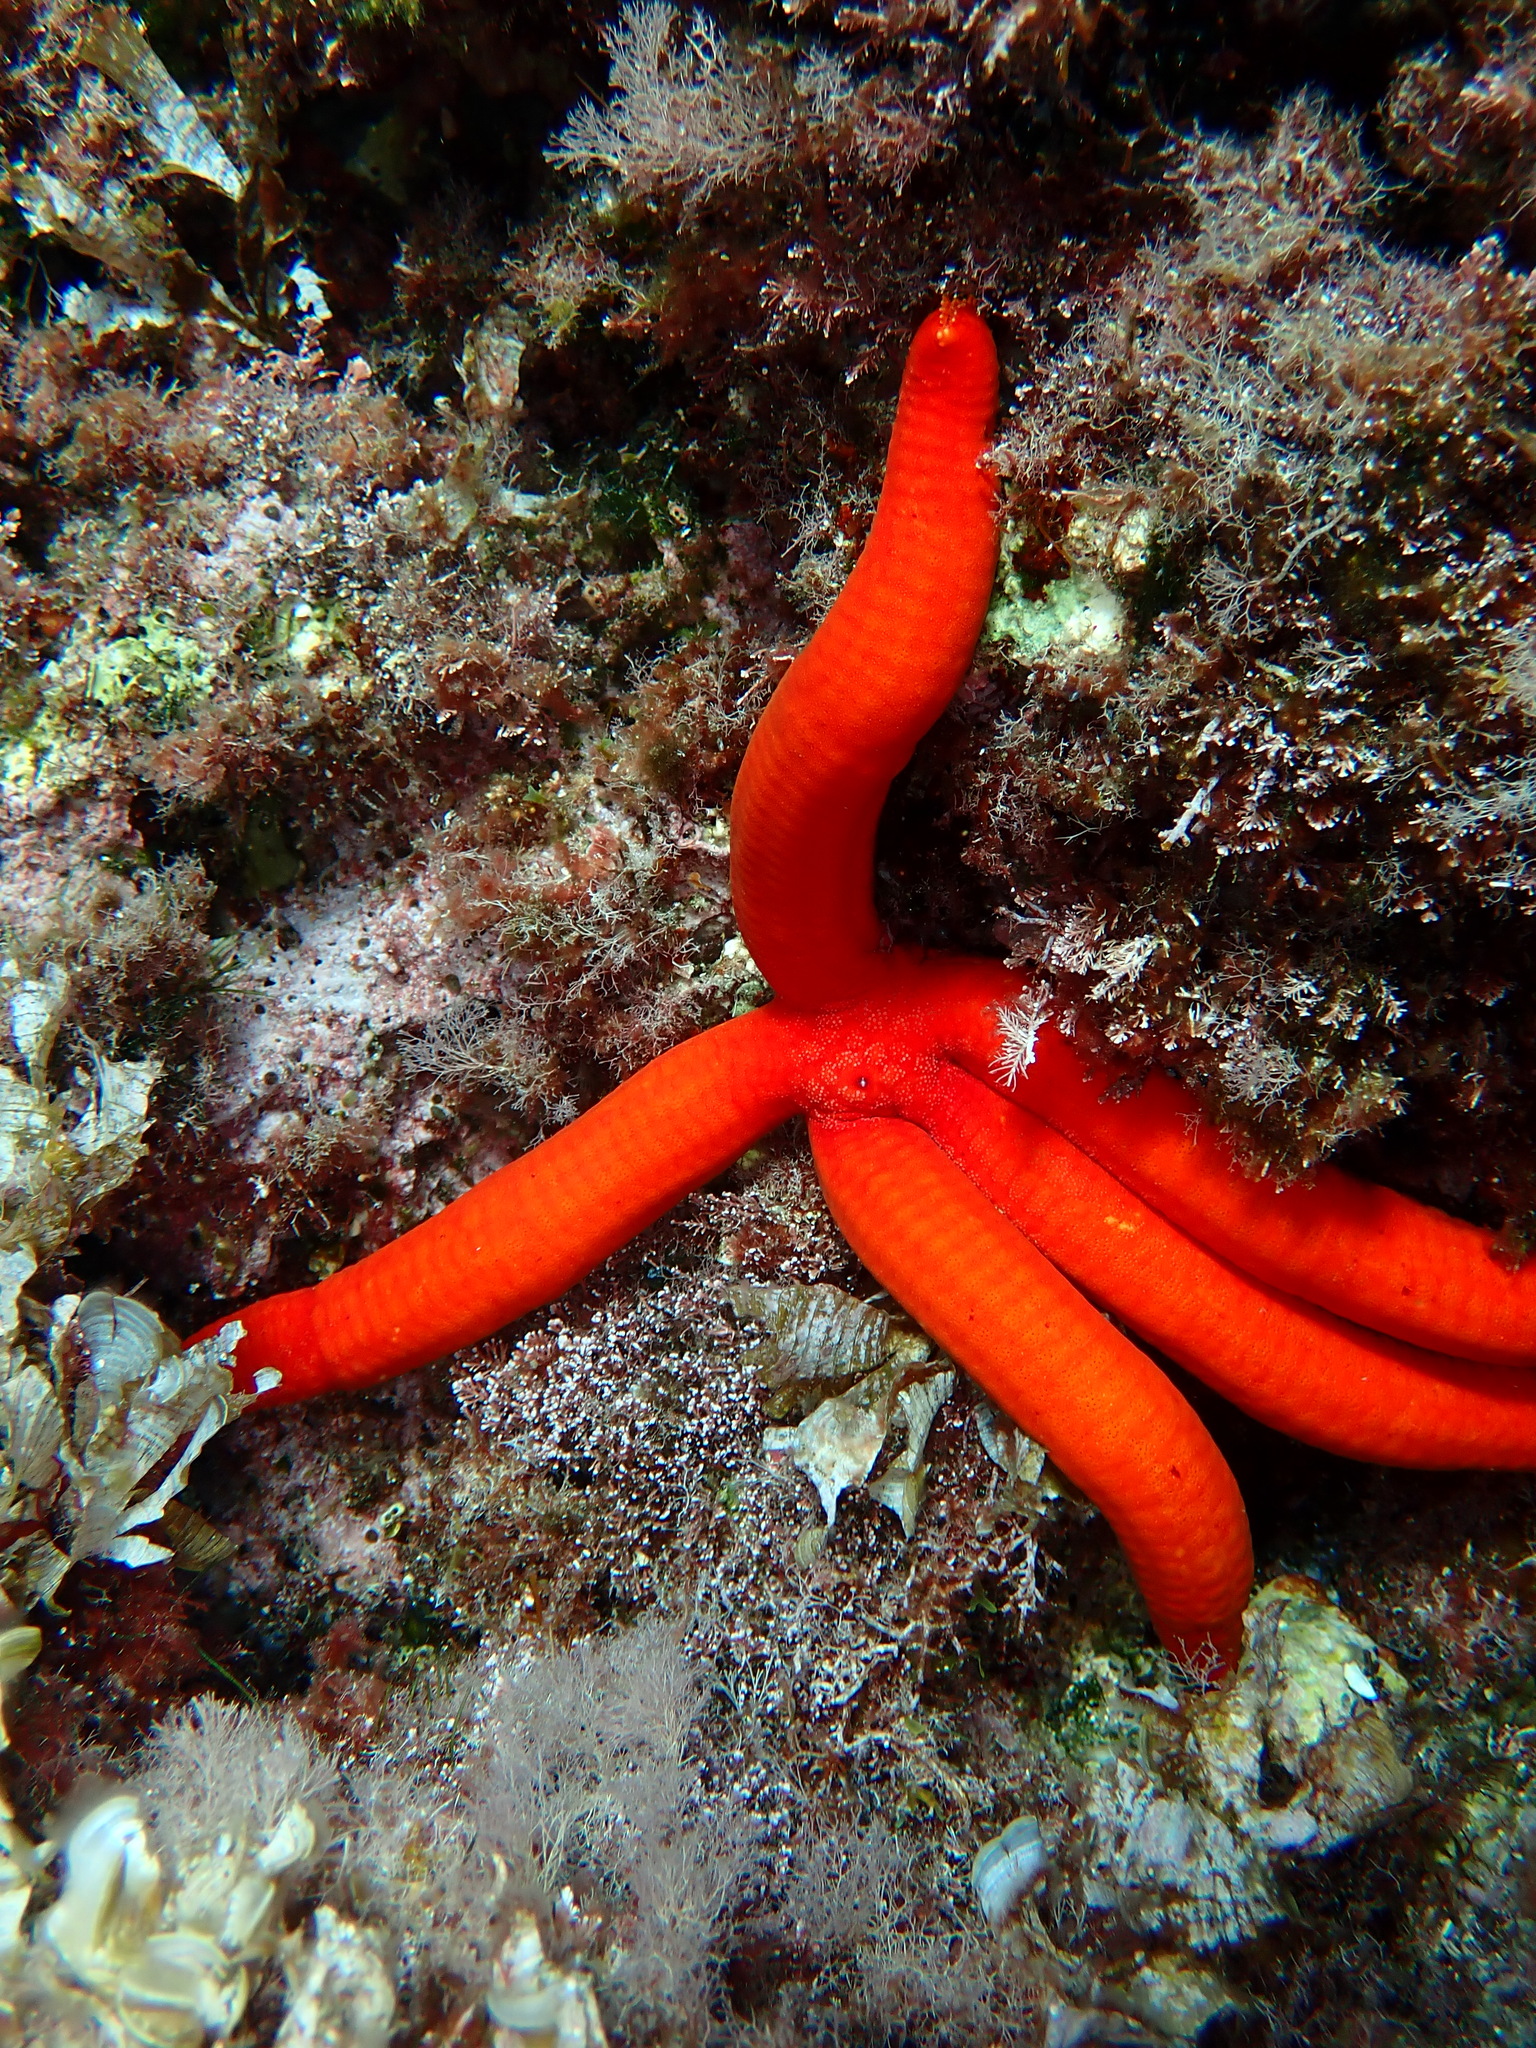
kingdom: Animalia
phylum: Echinodermata
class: Asteroidea
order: Valvatida
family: Ophidiasteridae
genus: Ophidiaster
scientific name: Ophidiaster ophidianus
